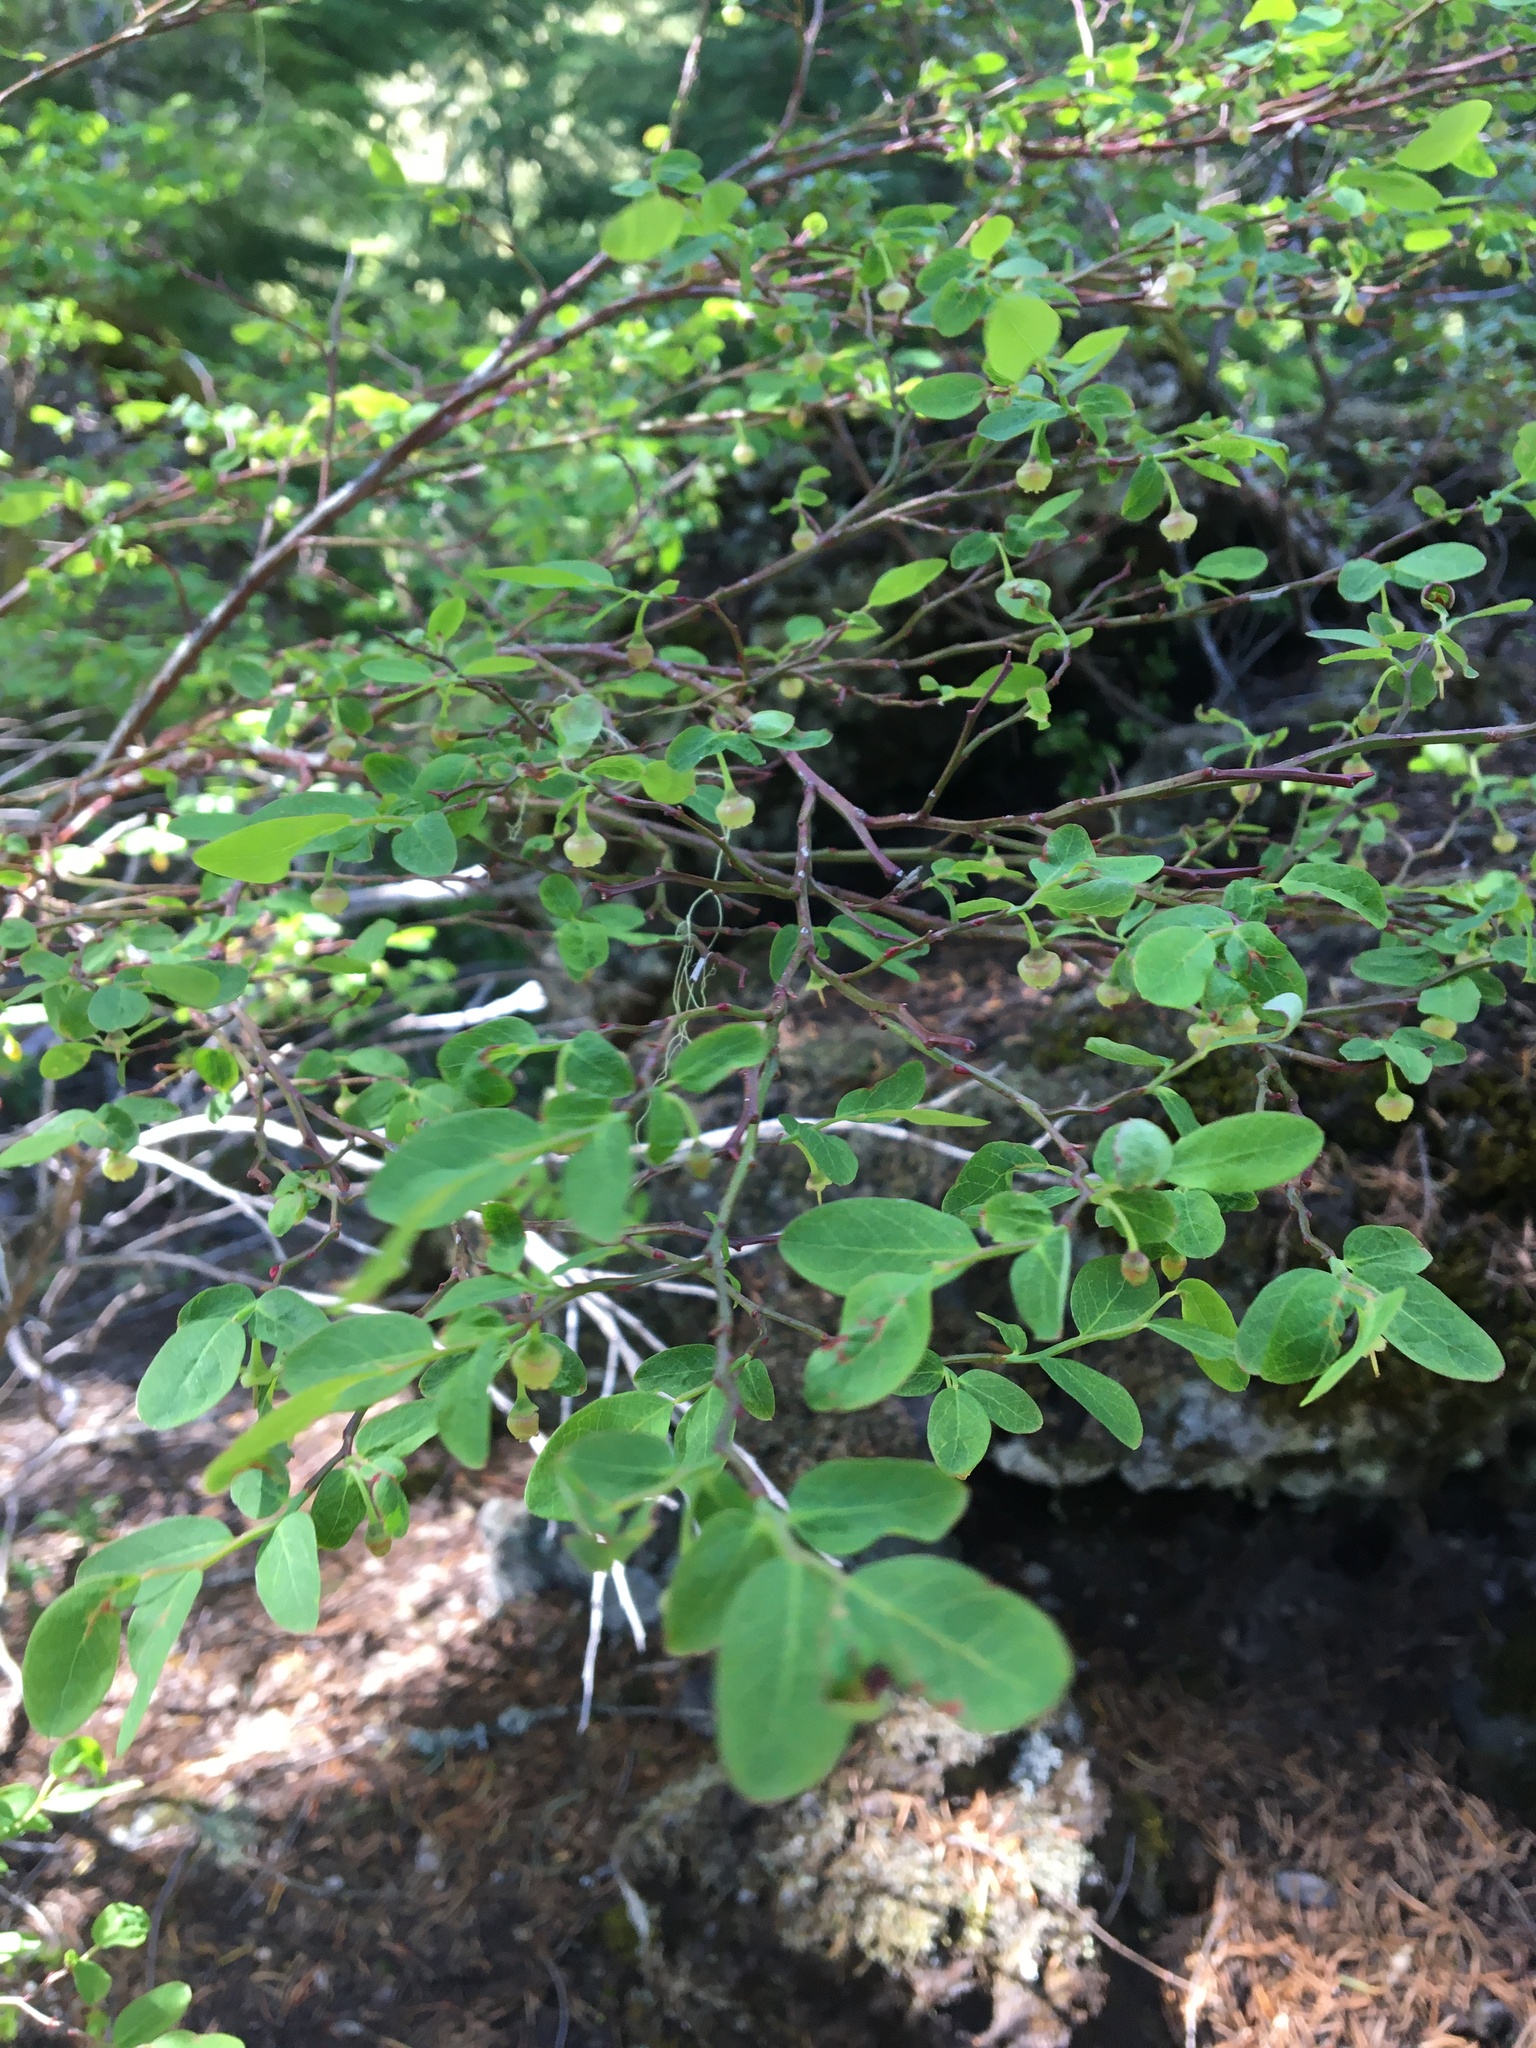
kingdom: Plantae
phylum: Tracheophyta
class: Magnoliopsida
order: Ericales
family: Ericaceae
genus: Vaccinium
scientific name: Vaccinium parvifolium
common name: Red-huckleberry
